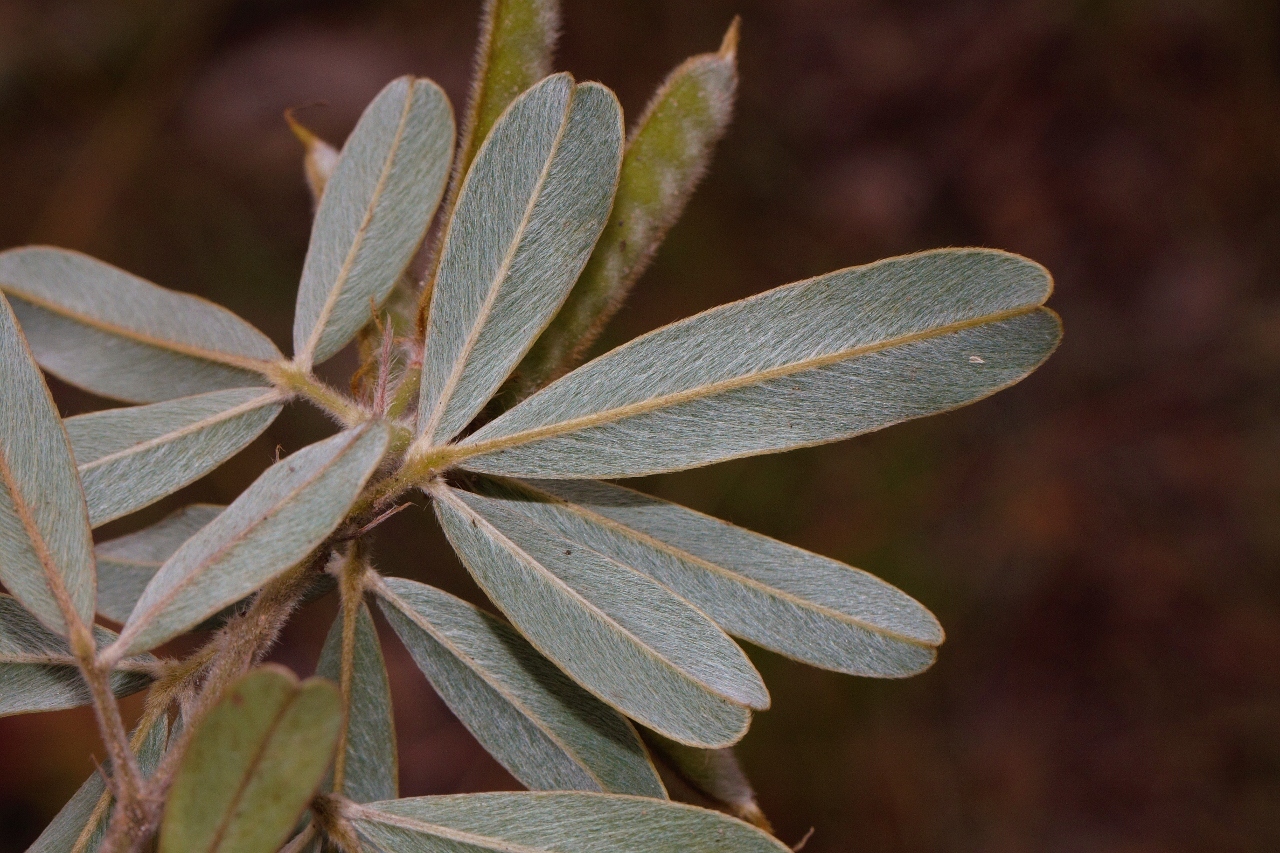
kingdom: Plantae
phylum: Tracheophyta
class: Magnoliopsida
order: Fabales
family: Fabaceae
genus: Tephrosia
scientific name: Tephrosia dasyphylla
